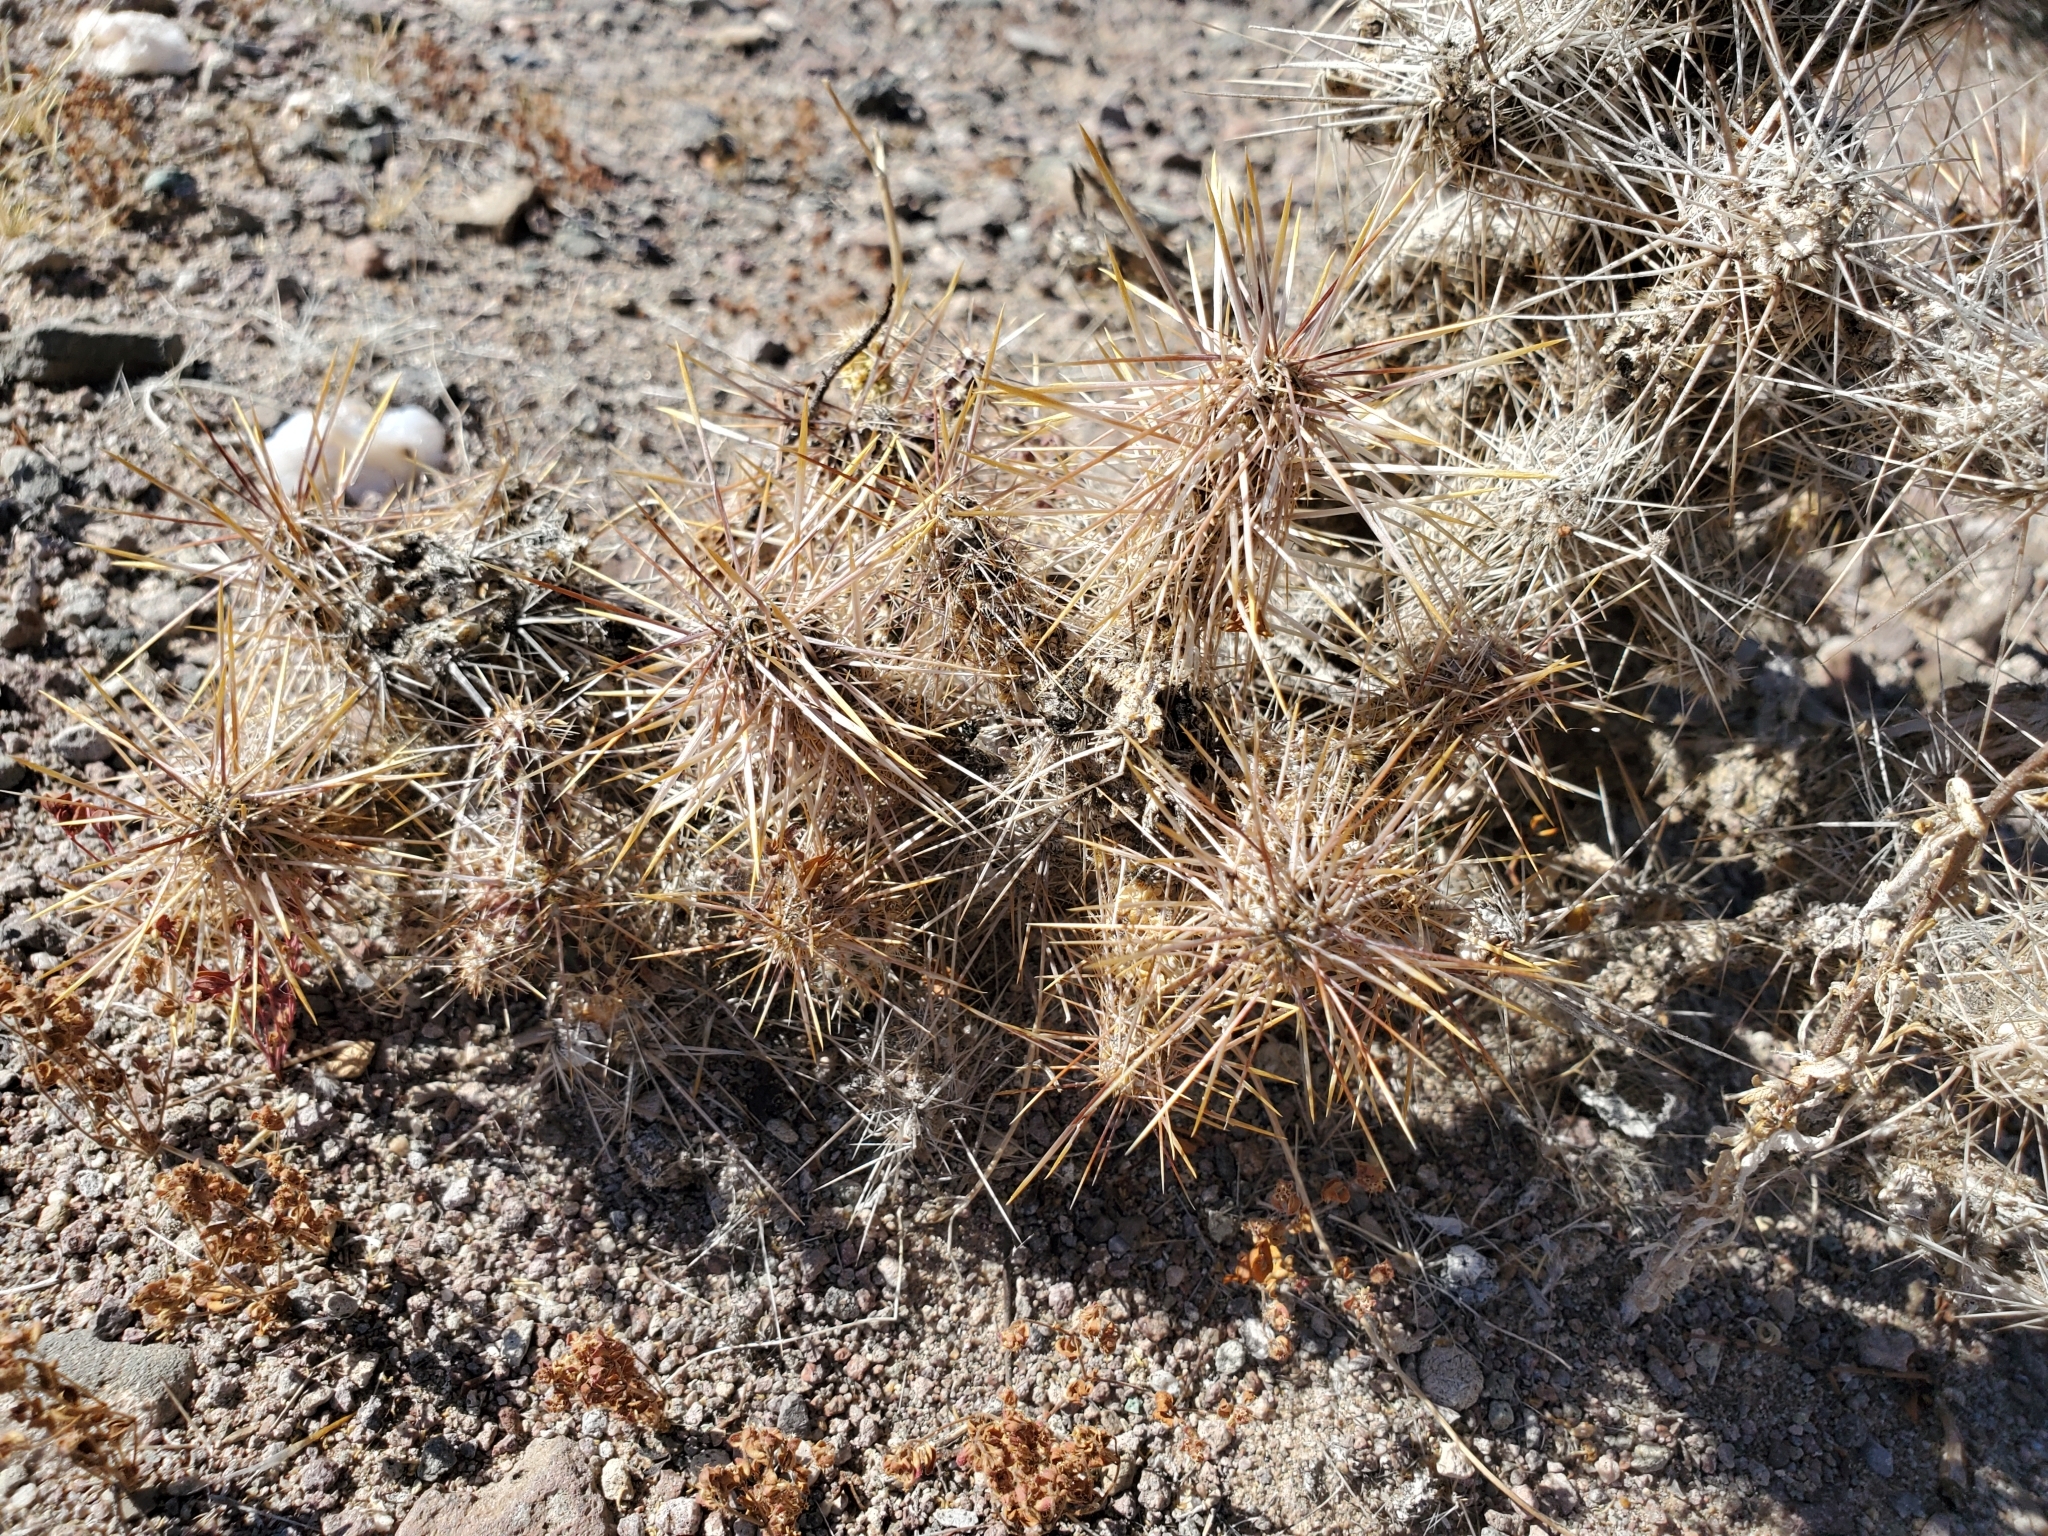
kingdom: Plantae
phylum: Tracheophyta
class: Magnoliopsida
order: Caryophyllales
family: Cactaceae
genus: Grusonia
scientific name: Grusonia kunzei
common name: Wright's club cholla
